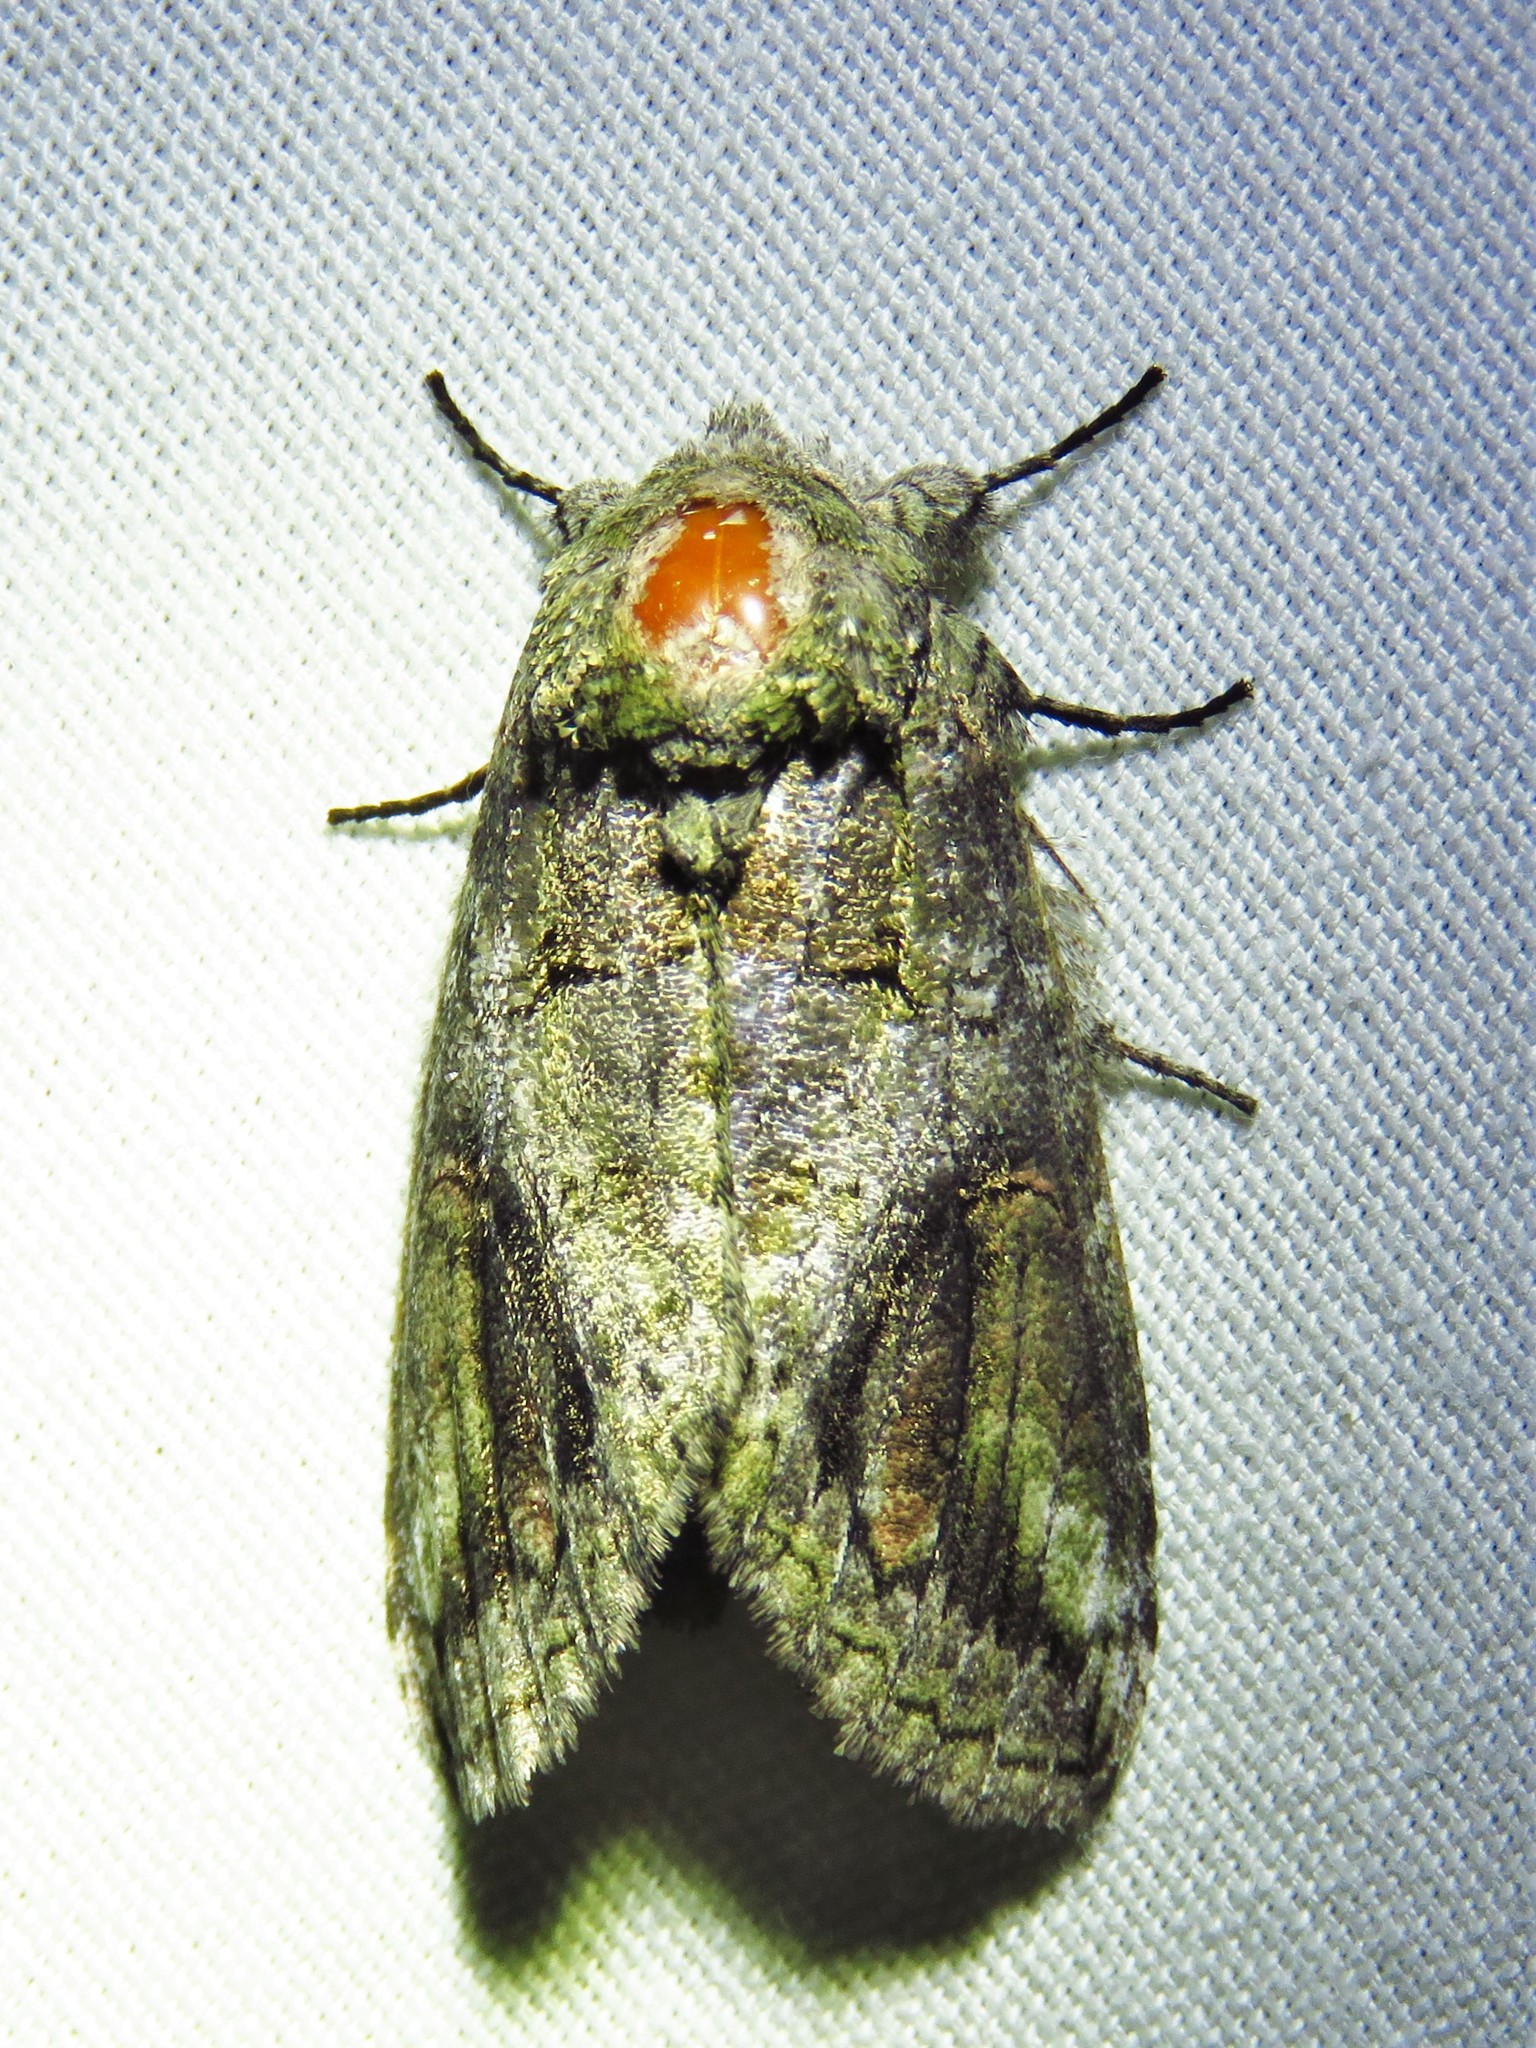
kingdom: Animalia
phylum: Arthropoda
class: Insecta
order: Lepidoptera
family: Notodontidae
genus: Heterocampa
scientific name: Heterocampa obliqua
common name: Oblique heterocampa
